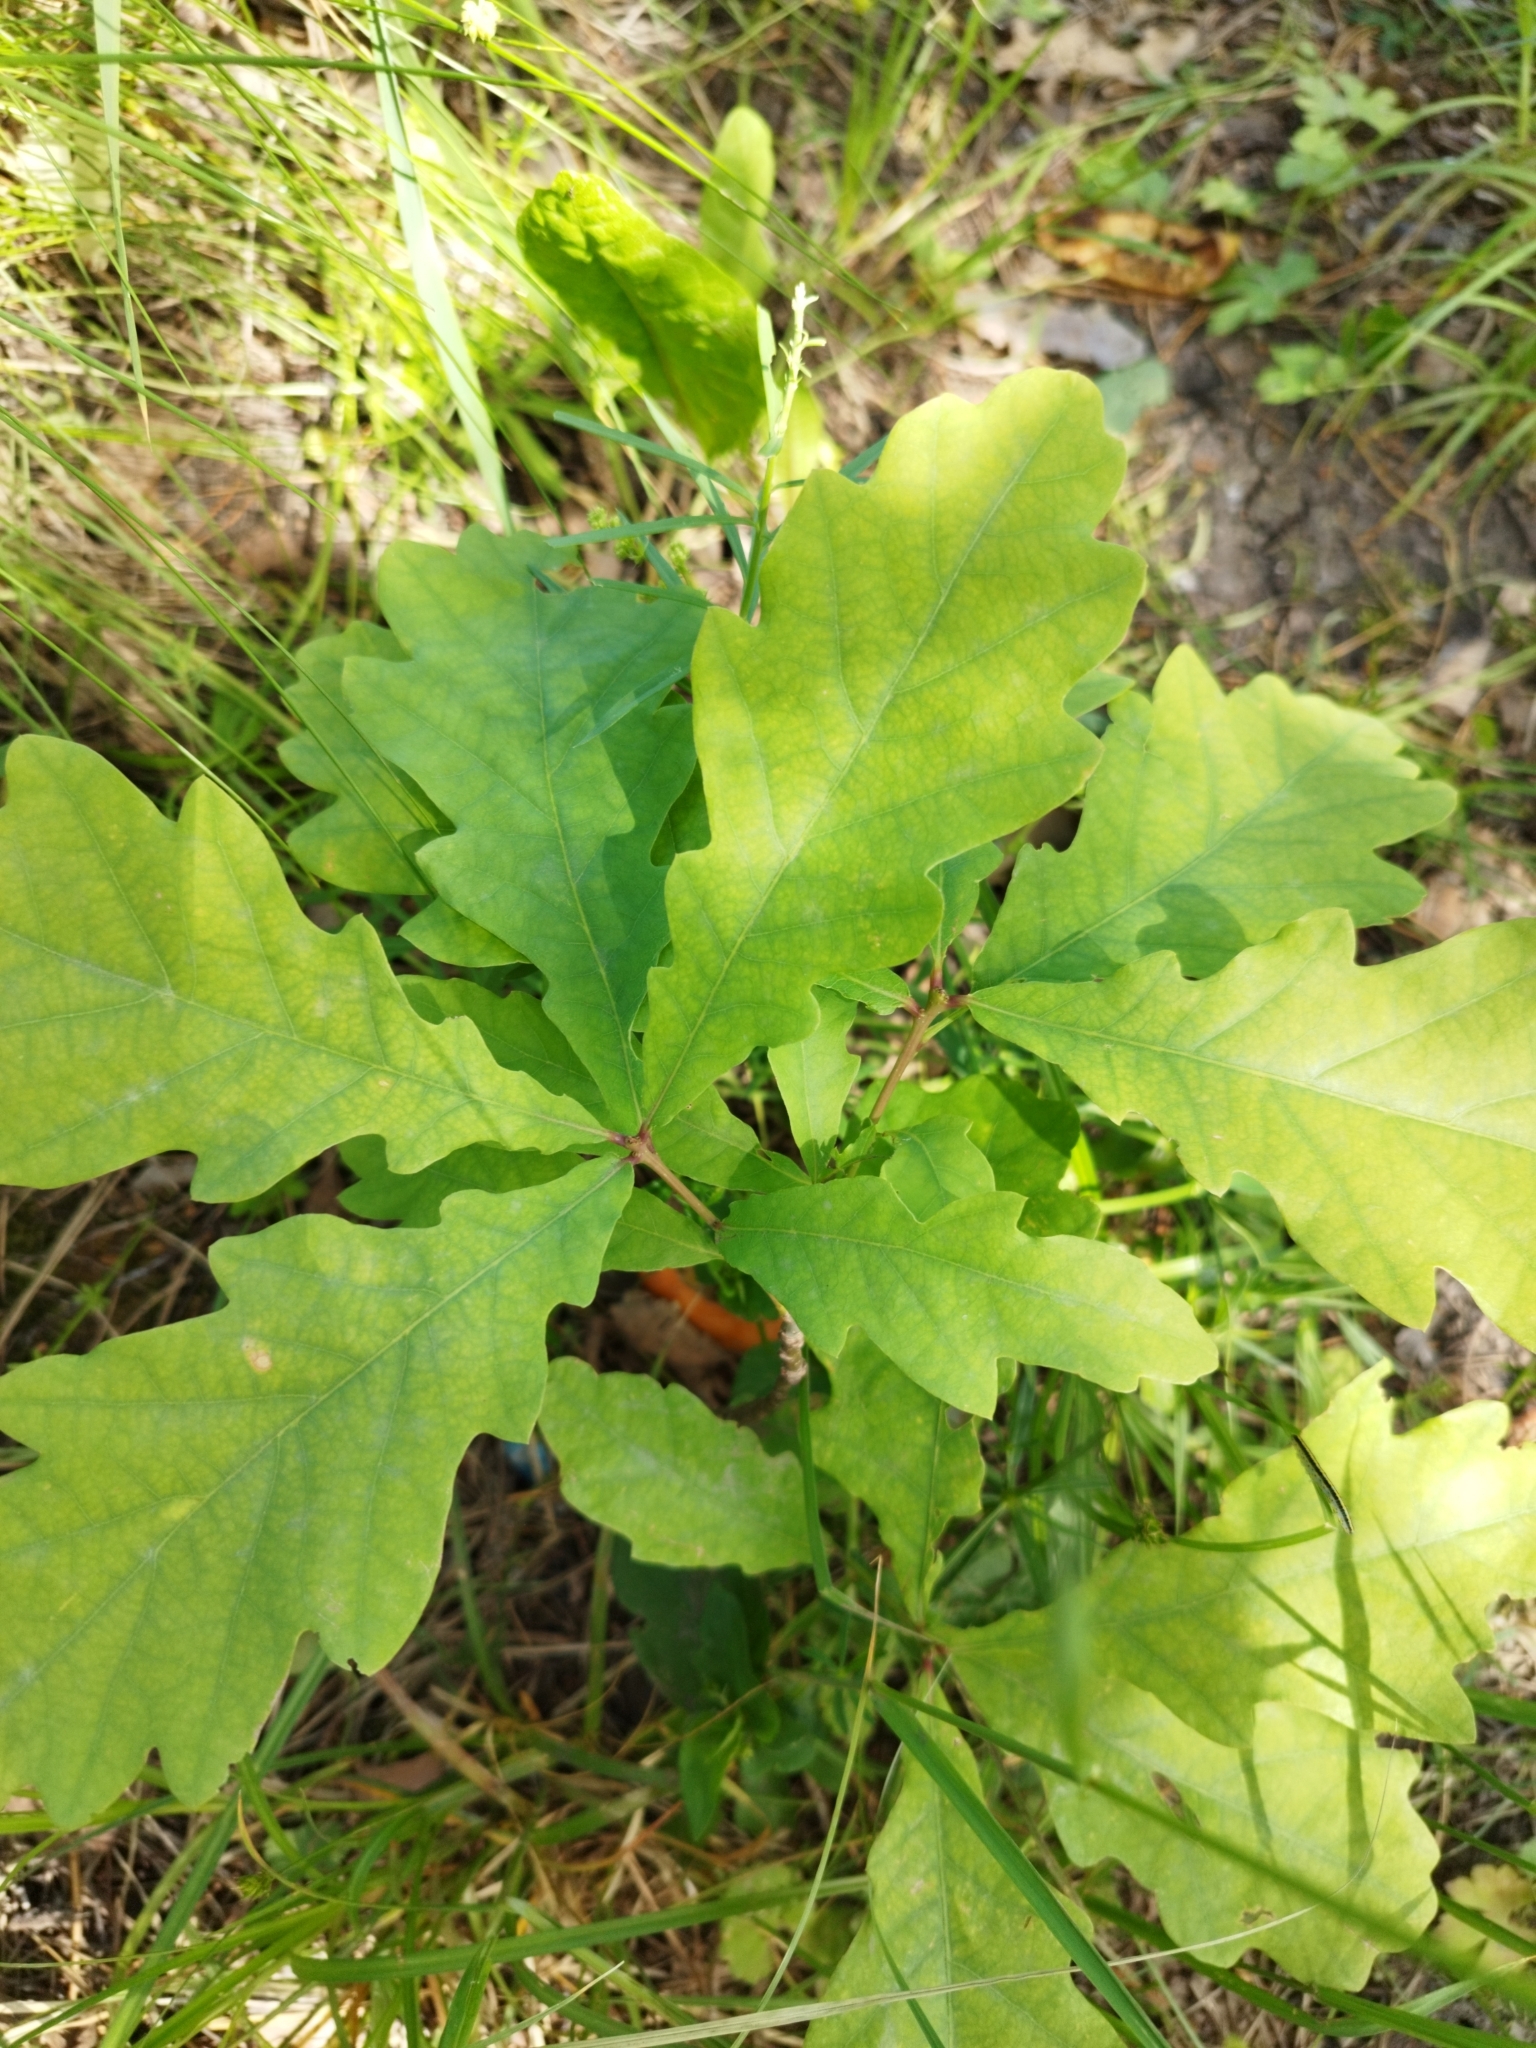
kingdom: Plantae
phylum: Tracheophyta
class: Magnoliopsida
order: Fagales
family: Fagaceae
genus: Quercus
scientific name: Quercus robur
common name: Pedunculate oak
